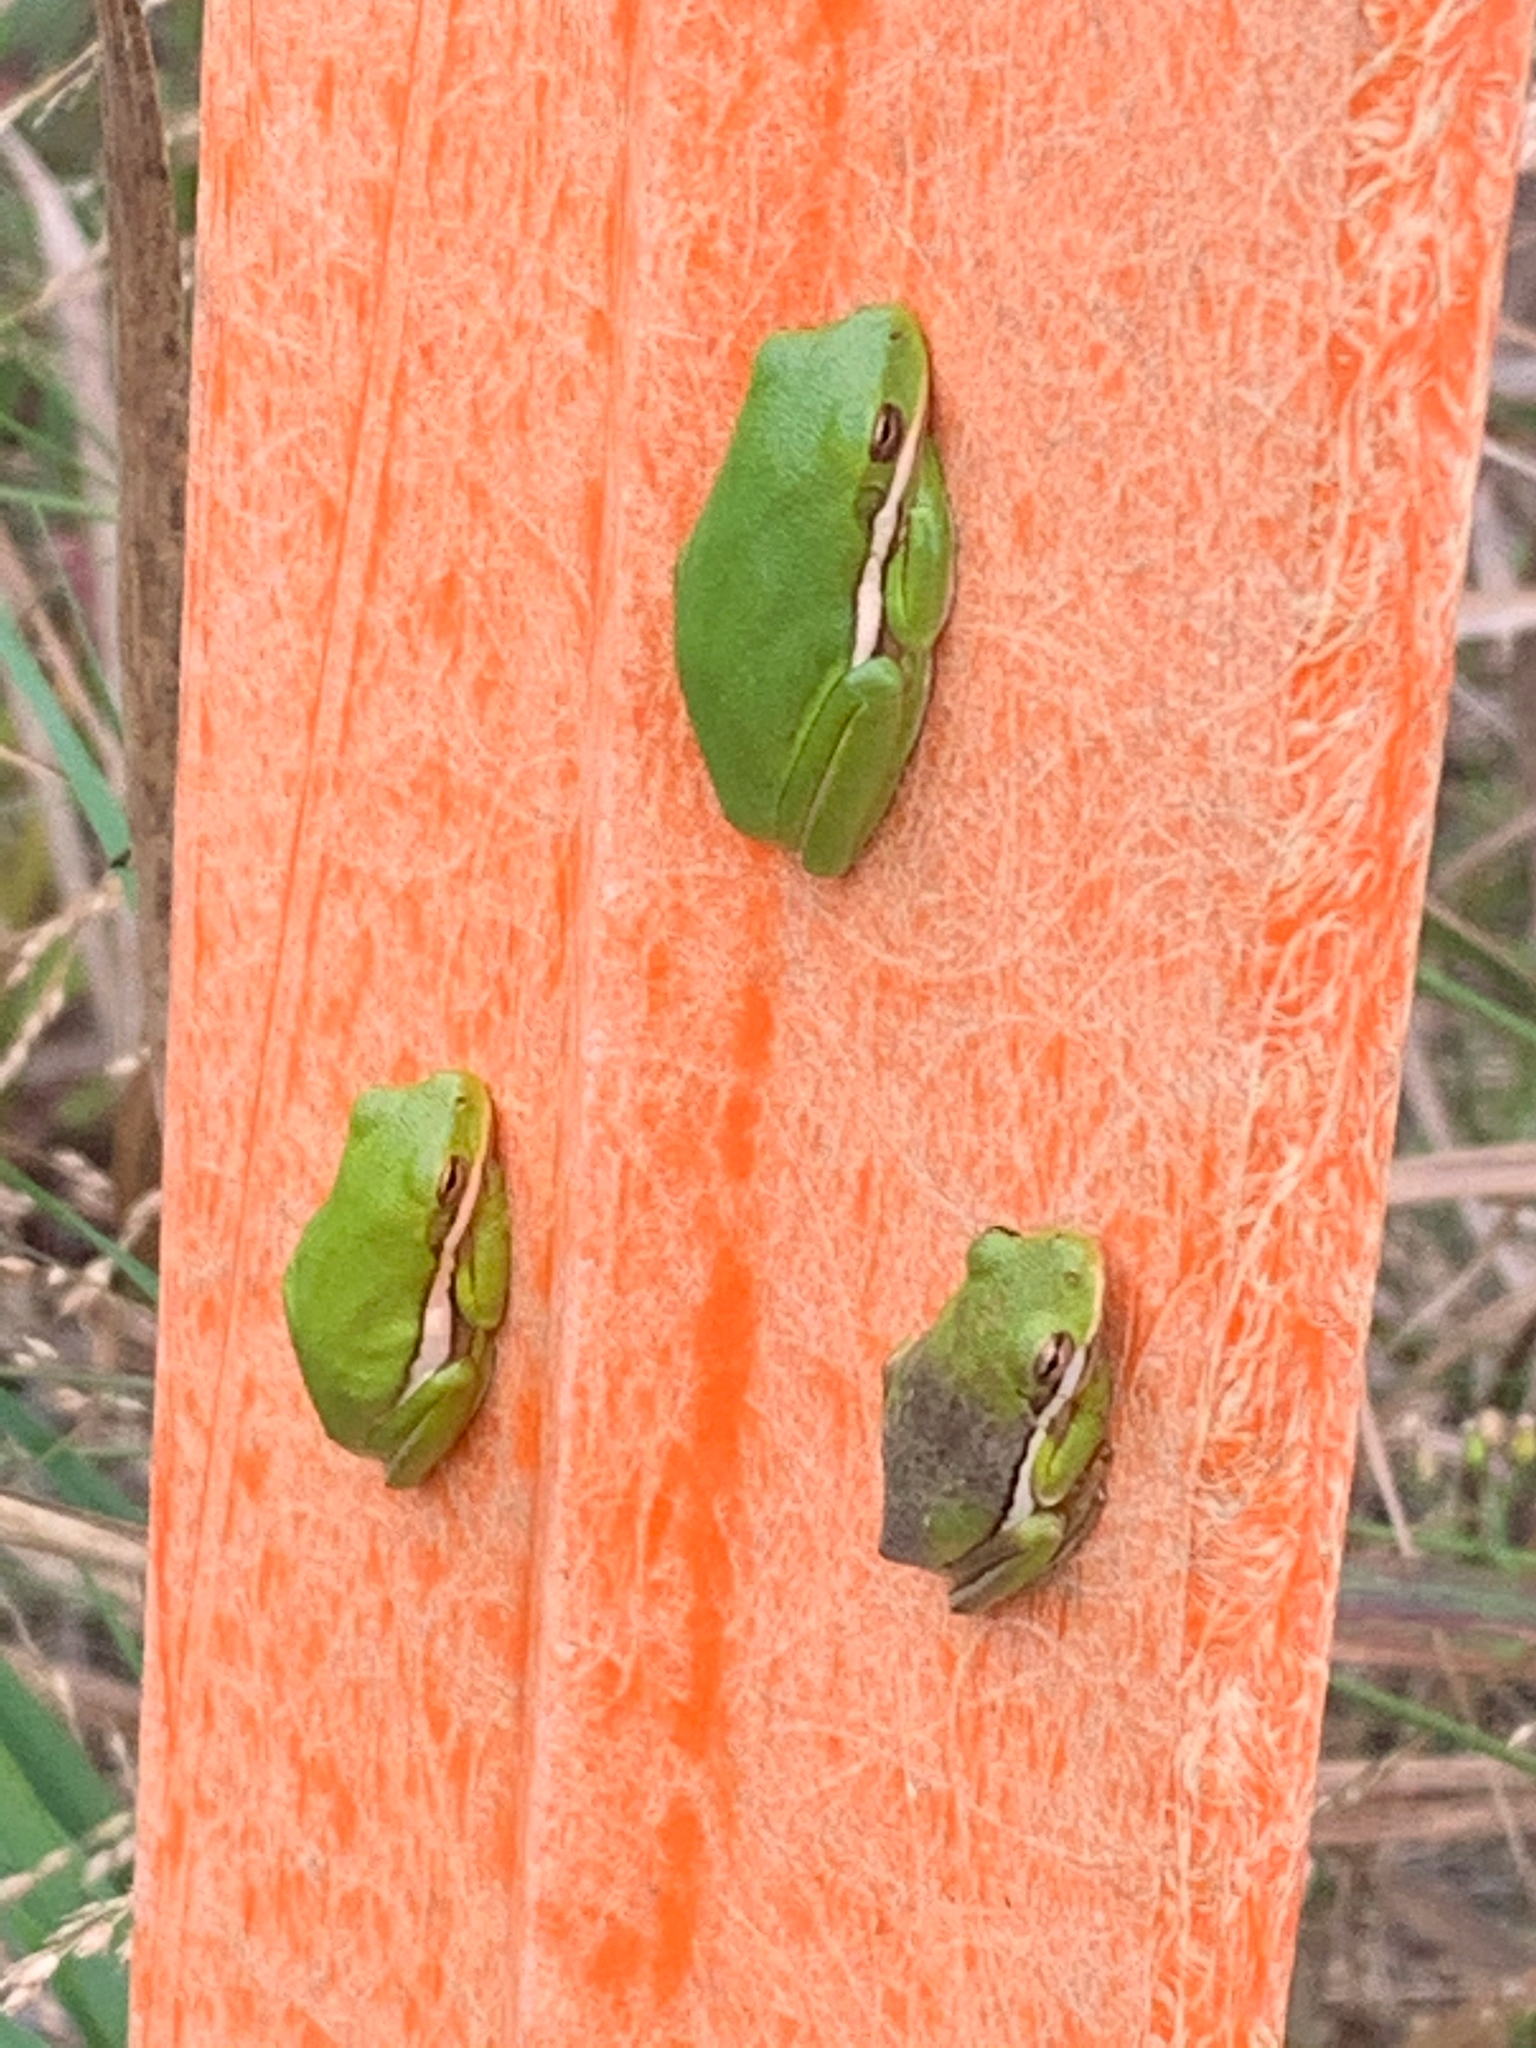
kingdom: Animalia
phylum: Chordata
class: Amphibia
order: Anura
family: Hylidae
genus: Dryophytes
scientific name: Dryophytes cinereus
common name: Green treefrog
